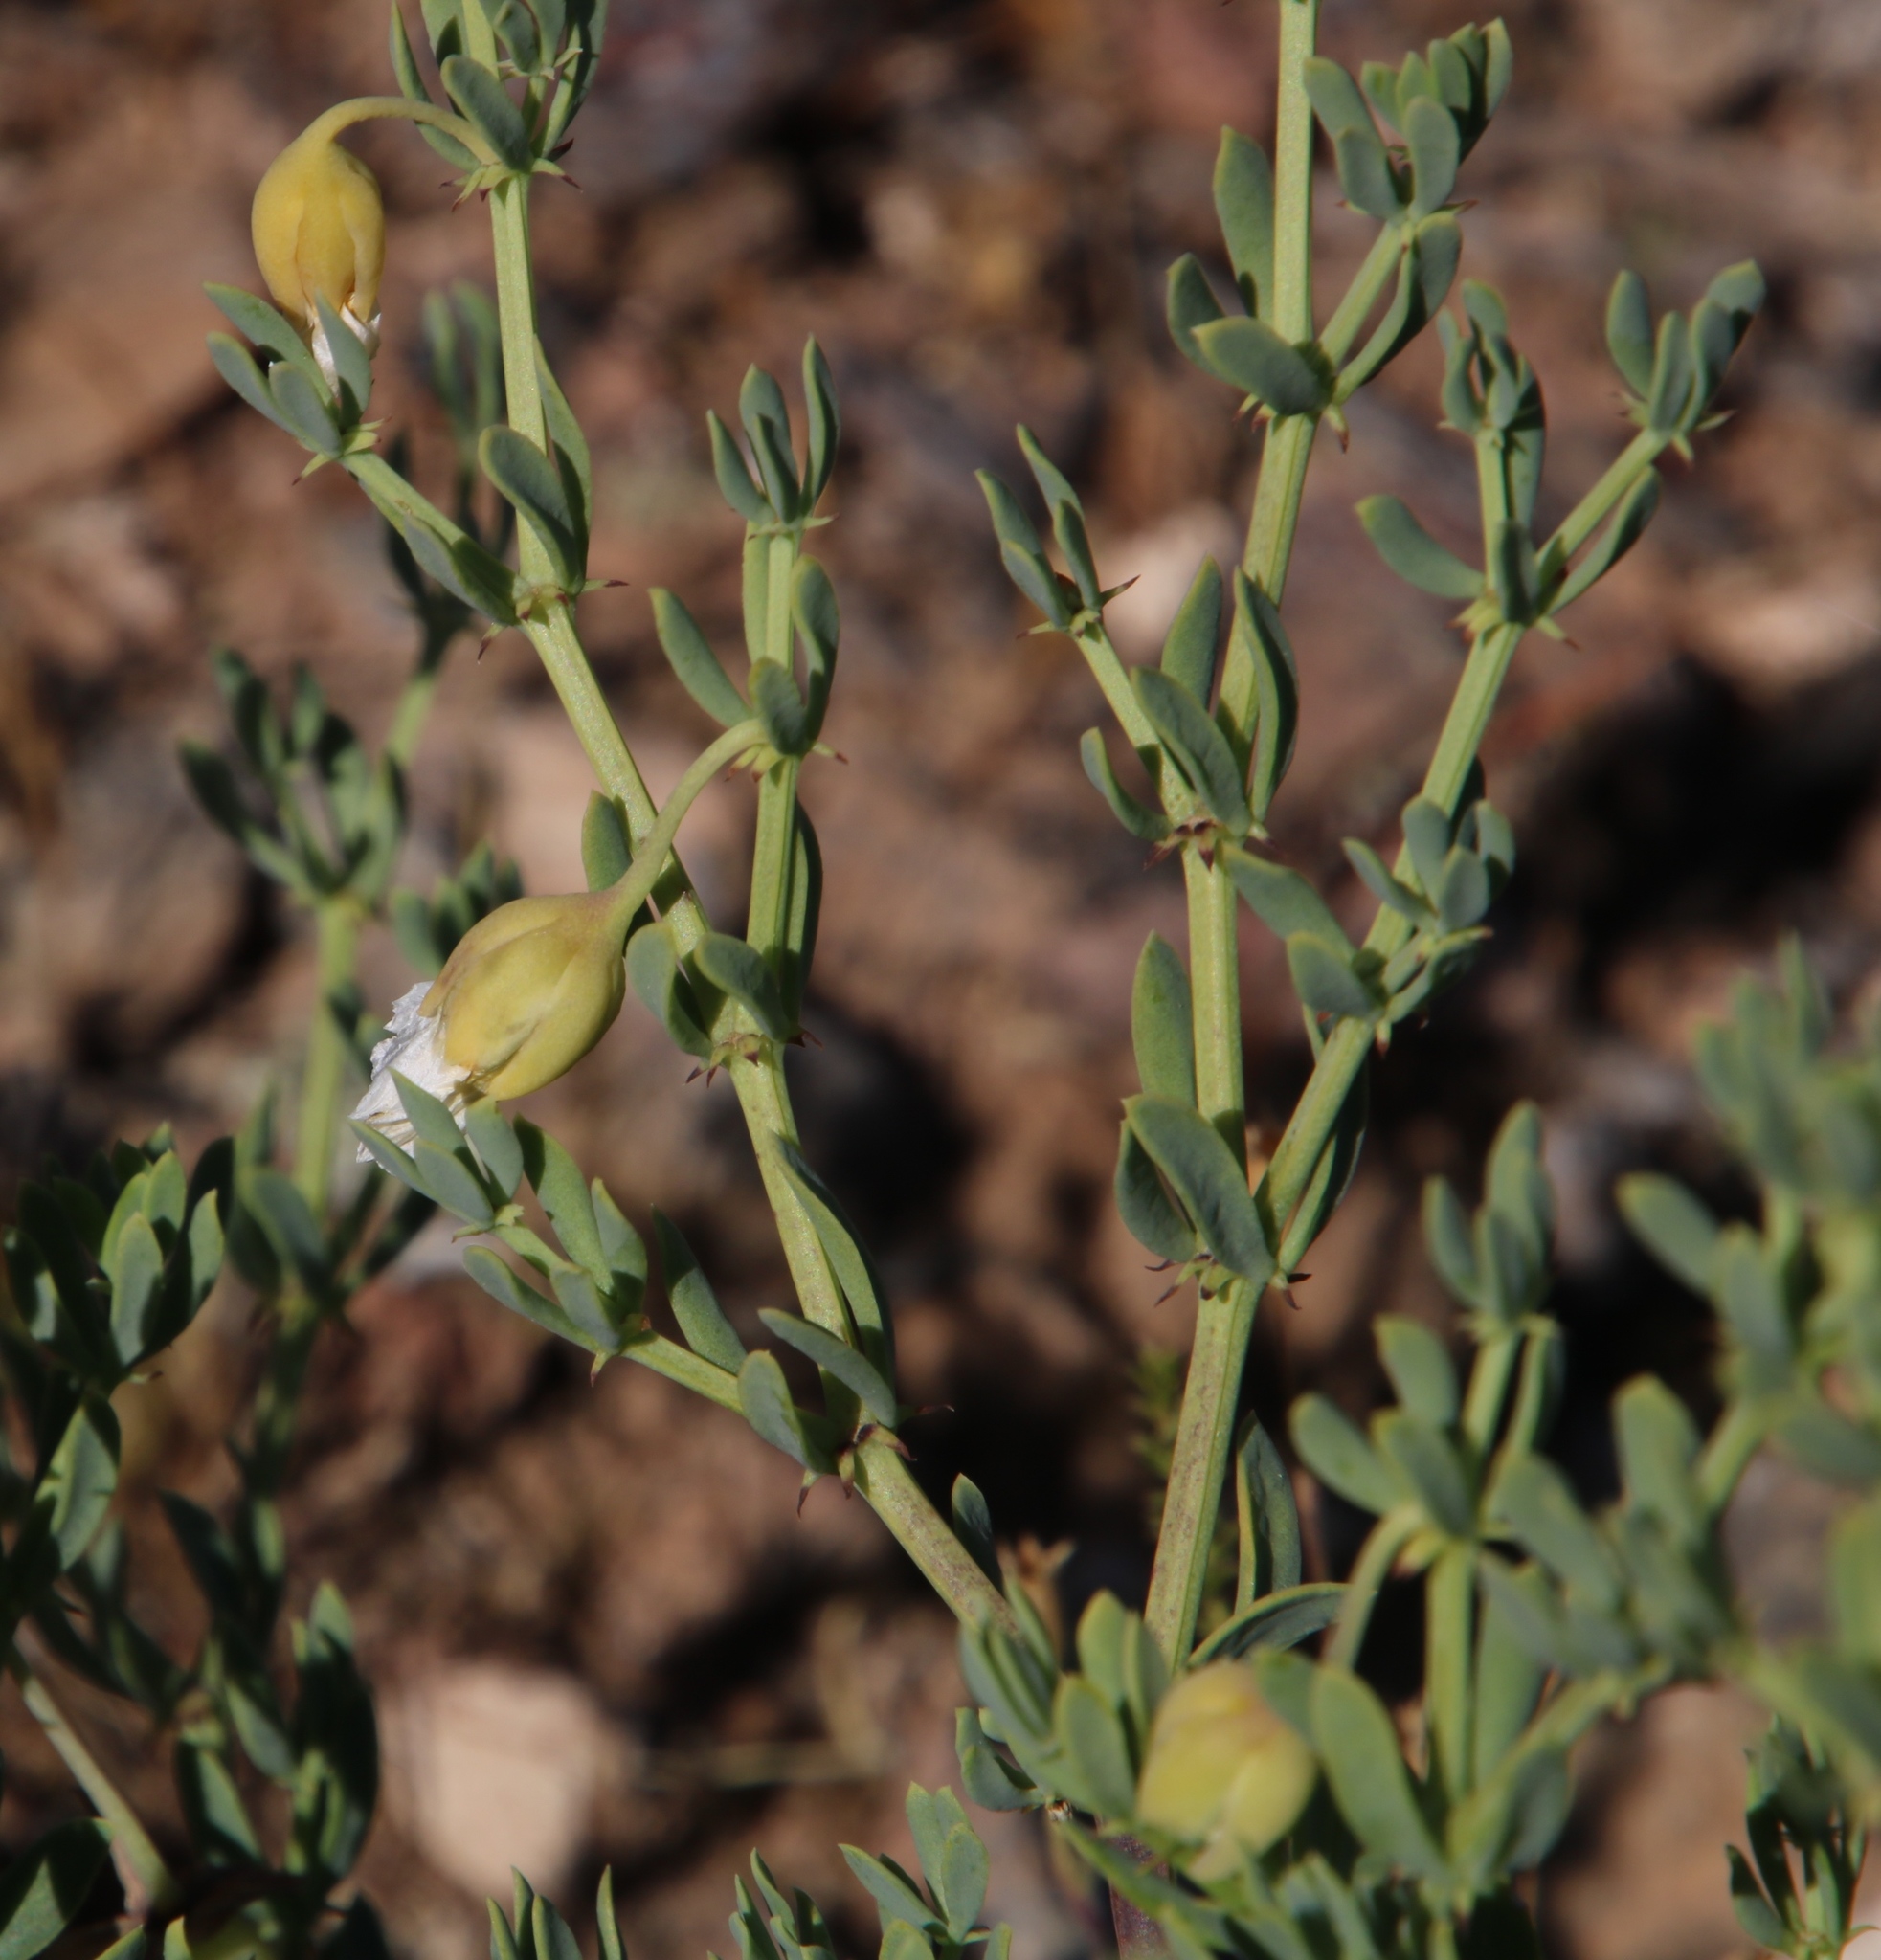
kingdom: Plantae
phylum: Tracheophyta
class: Magnoliopsida
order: Zygophyllales
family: Zygophyllaceae
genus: Roepera
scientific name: Roepera spinosa
